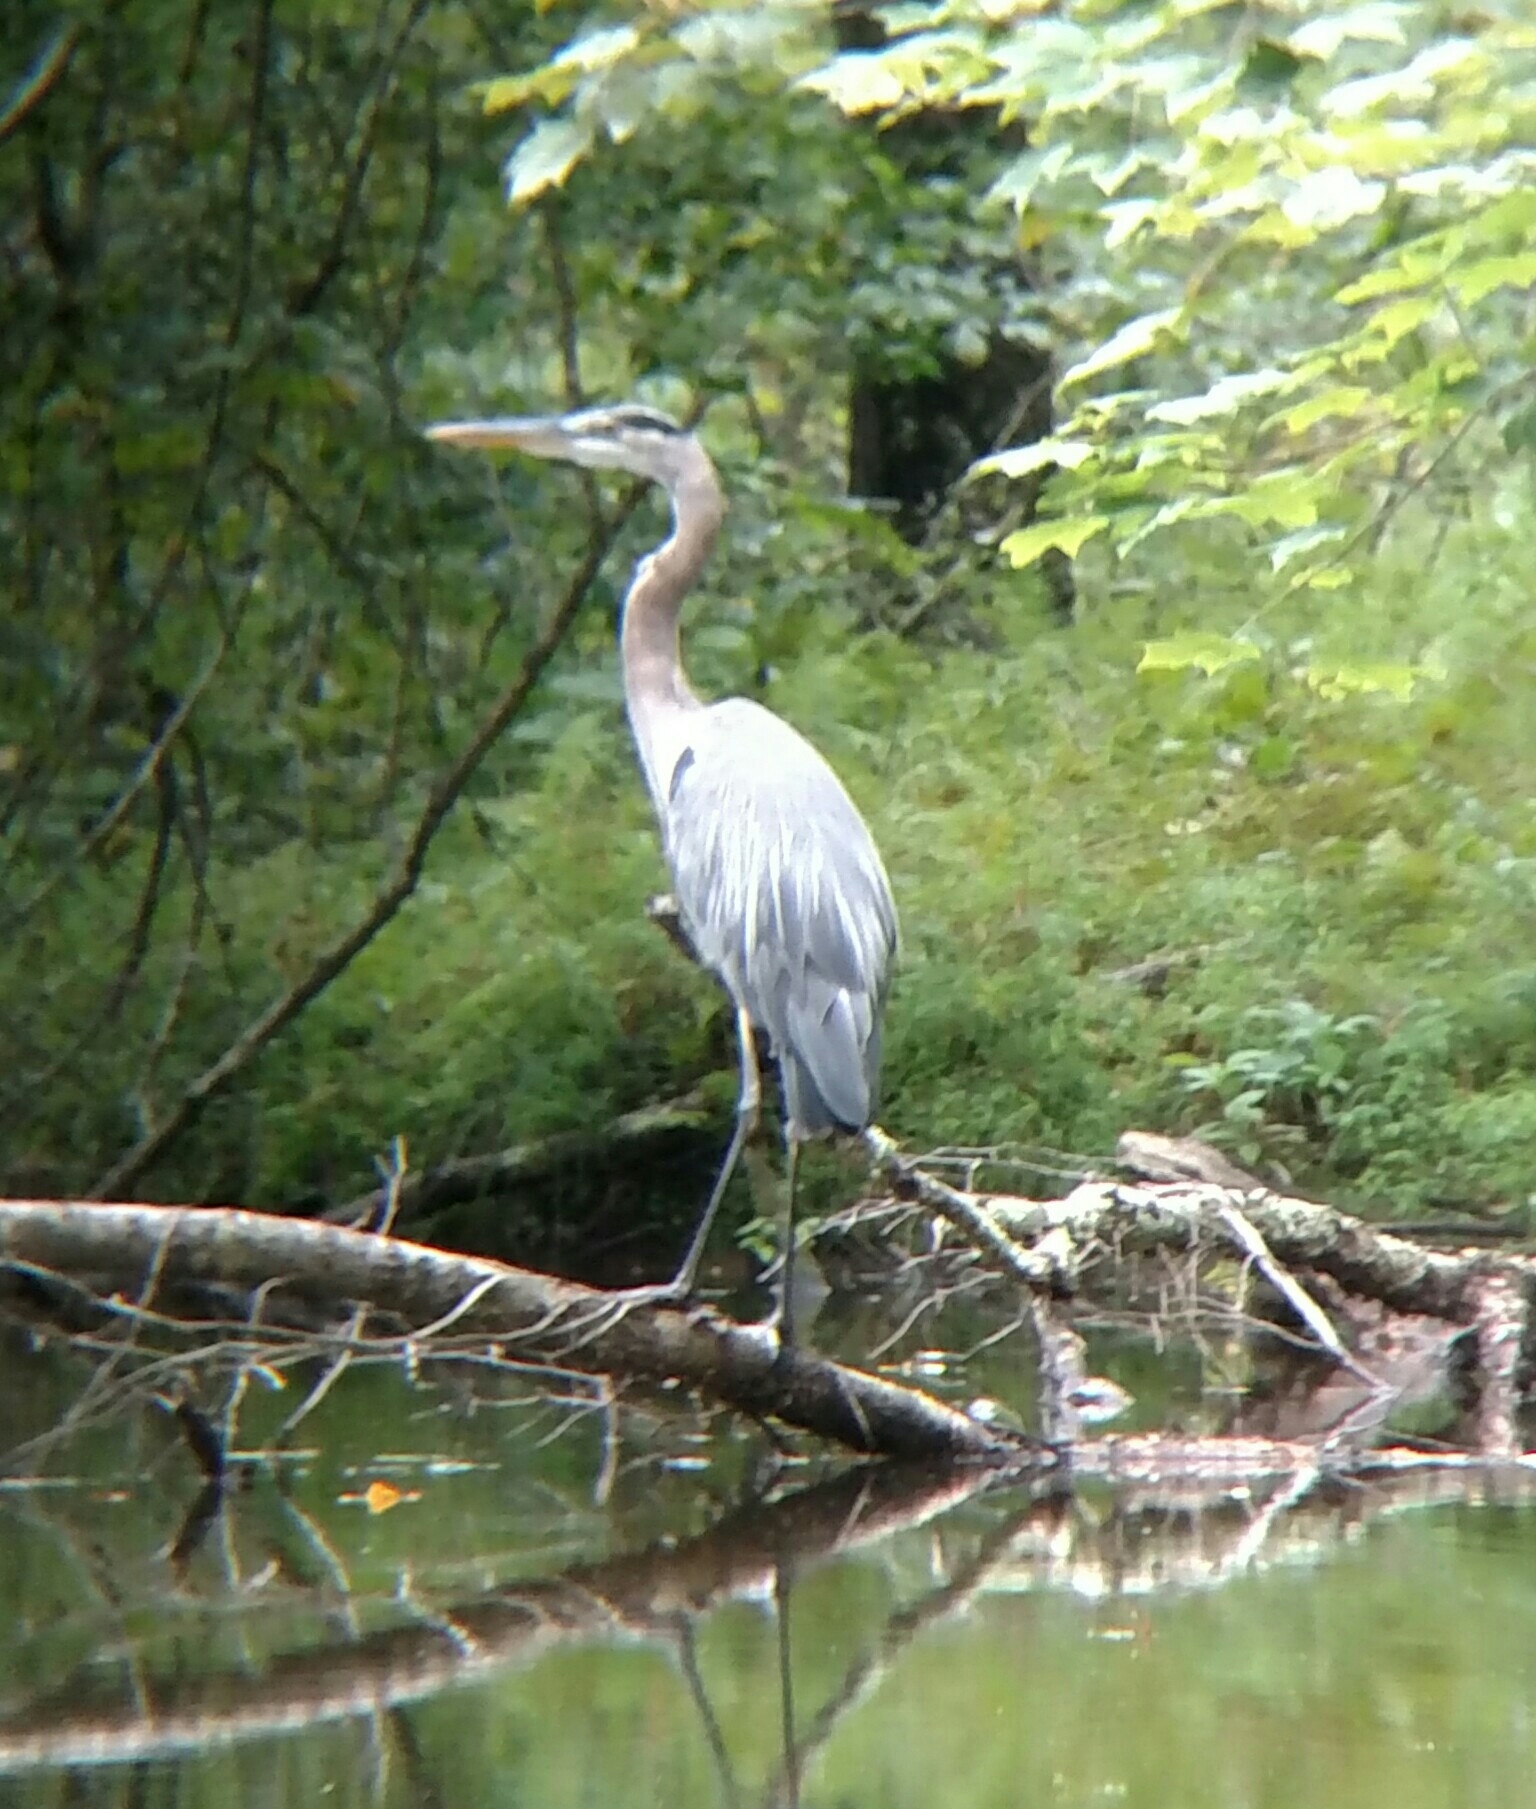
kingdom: Animalia
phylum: Chordata
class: Aves
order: Pelecaniformes
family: Ardeidae
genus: Ardea
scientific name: Ardea herodias
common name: Great blue heron
